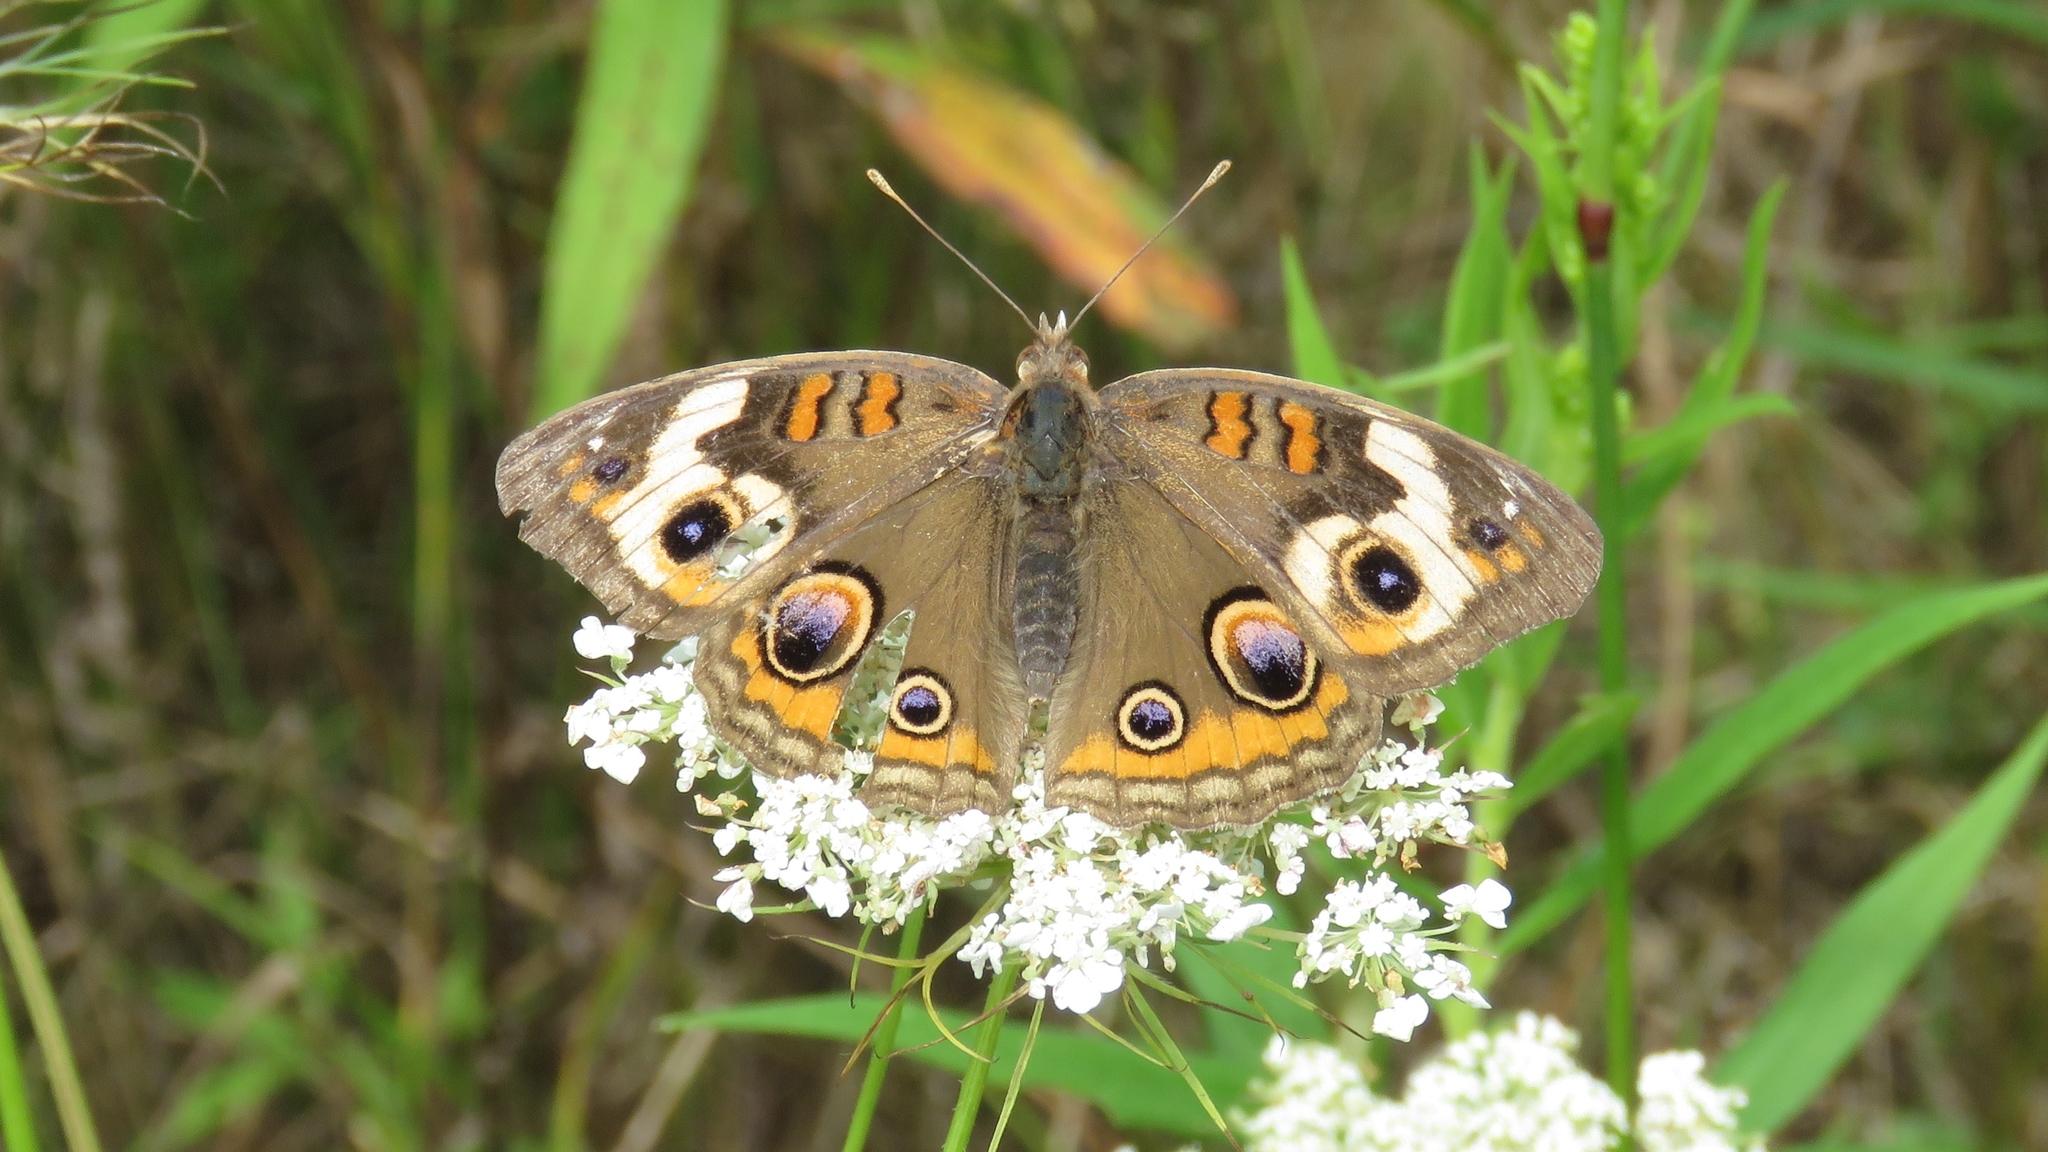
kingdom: Animalia
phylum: Arthropoda
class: Insecta
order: Lepidoptera
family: Nymphalidae
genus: Junonia
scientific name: Junonia coenia
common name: Common buckeye
